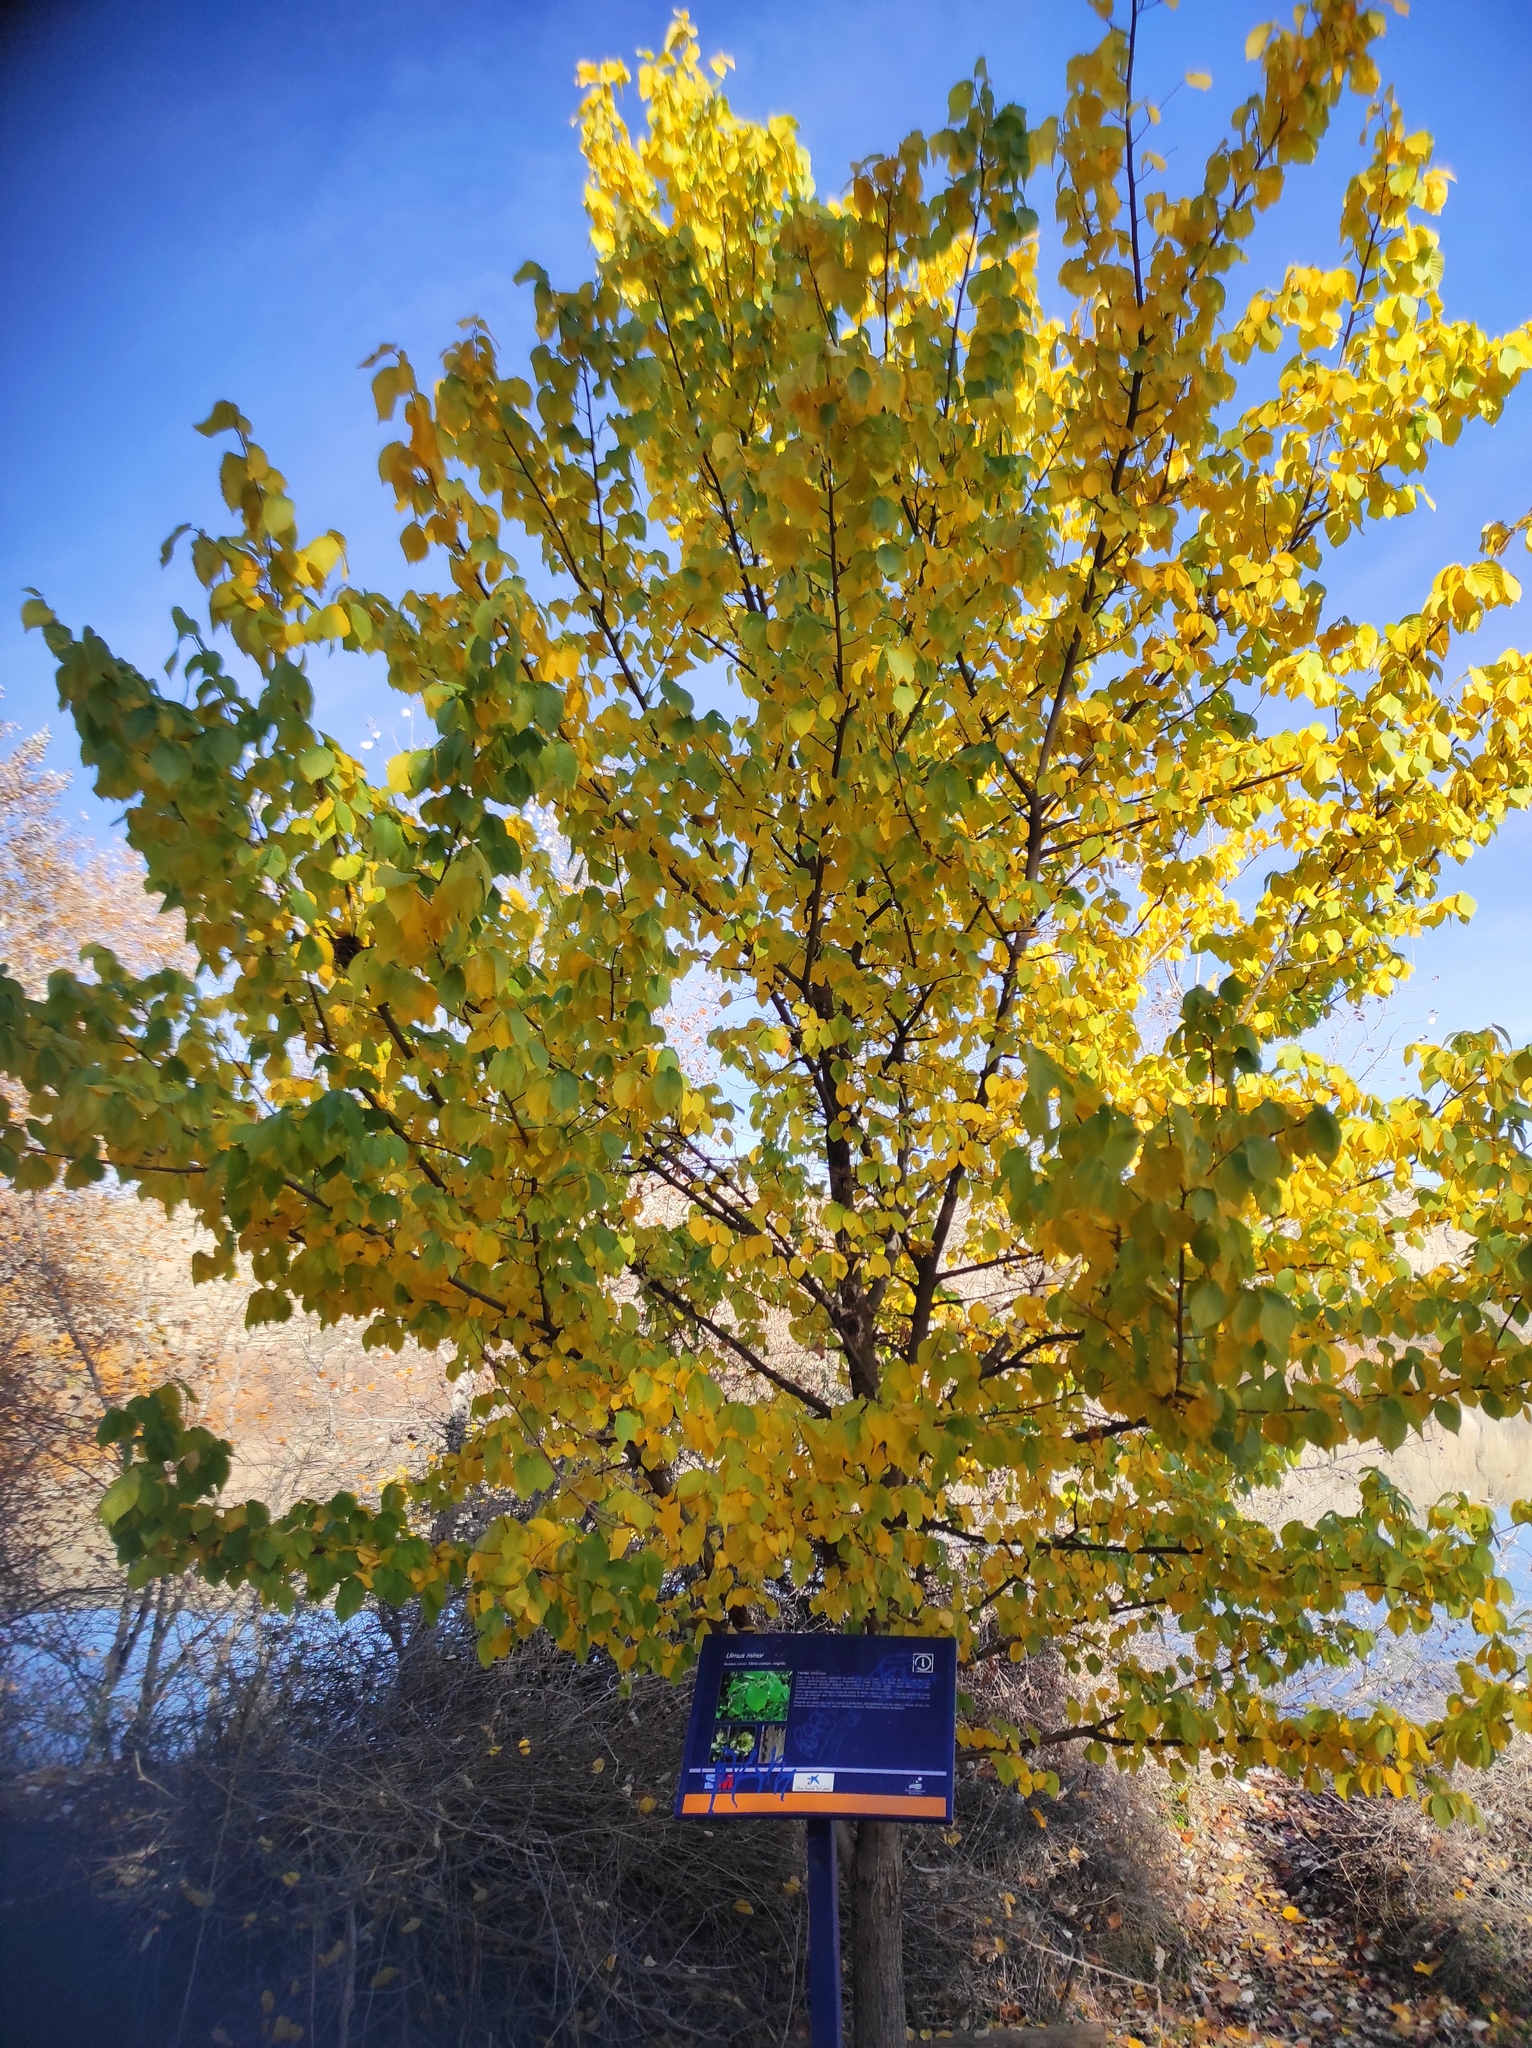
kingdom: Plantae
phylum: Tracheophyta
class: Magnoliopsida
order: Rosales
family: Ulmaceae
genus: Ulmus
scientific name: Ulmus minor
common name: Small-leaved elm
